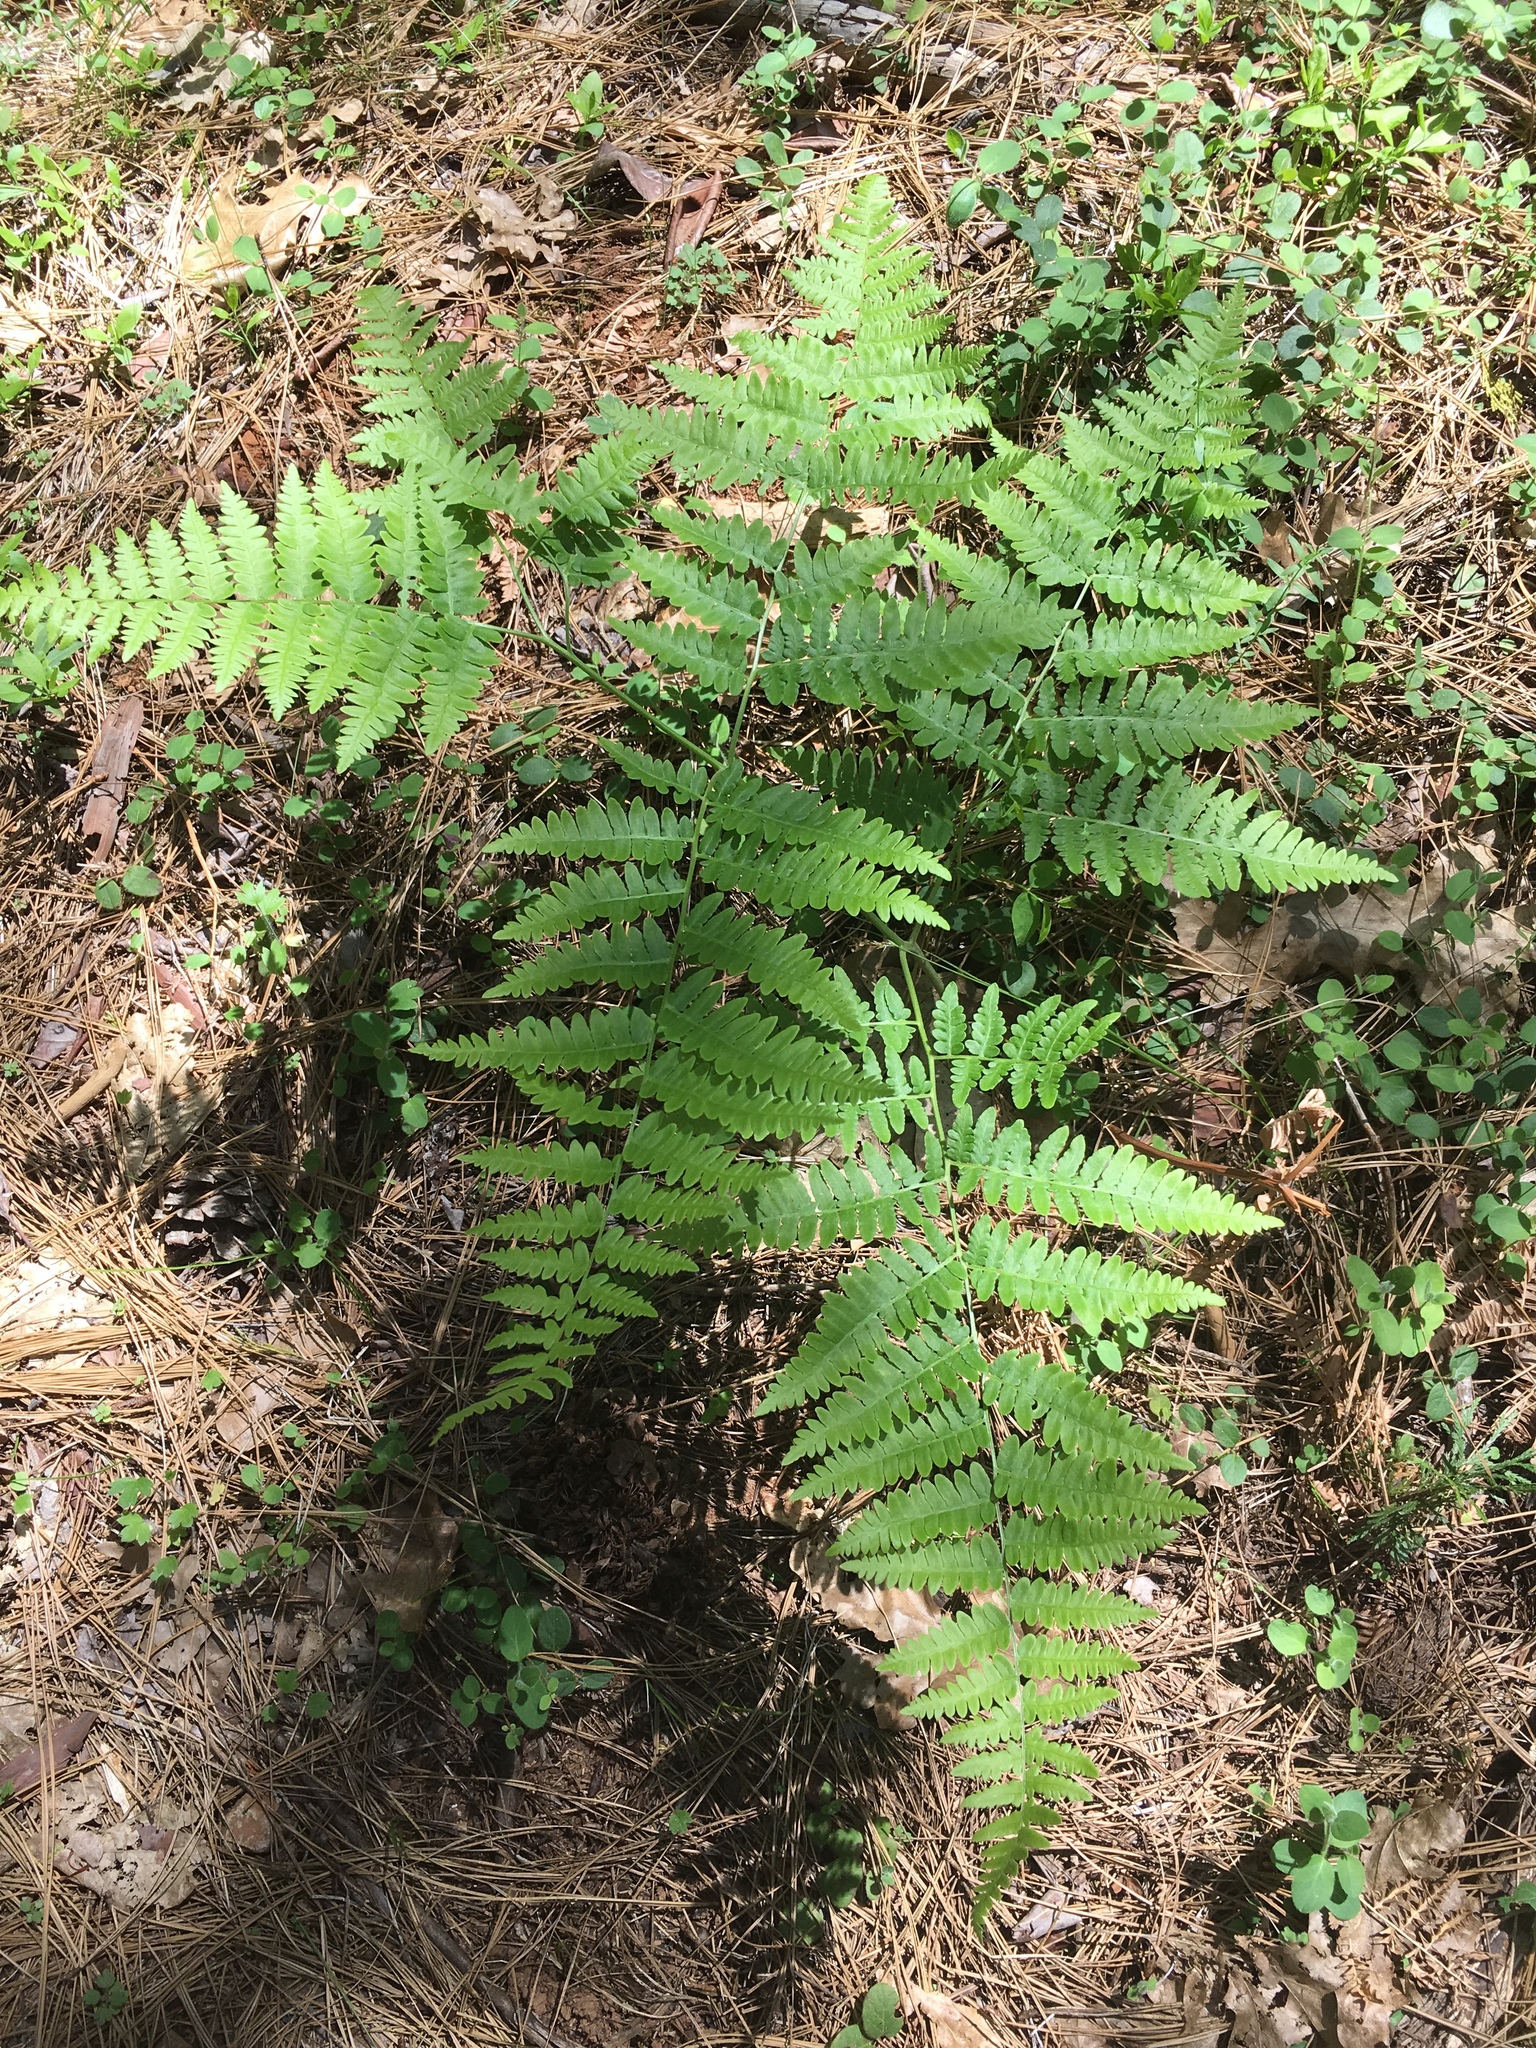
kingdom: Plantae
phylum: Tracheophyta
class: Polypodiopsida
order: Polypodiales
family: Dennstaedtiaceae
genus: Pteridium
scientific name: Pteridium aquilinum
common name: Bracken
